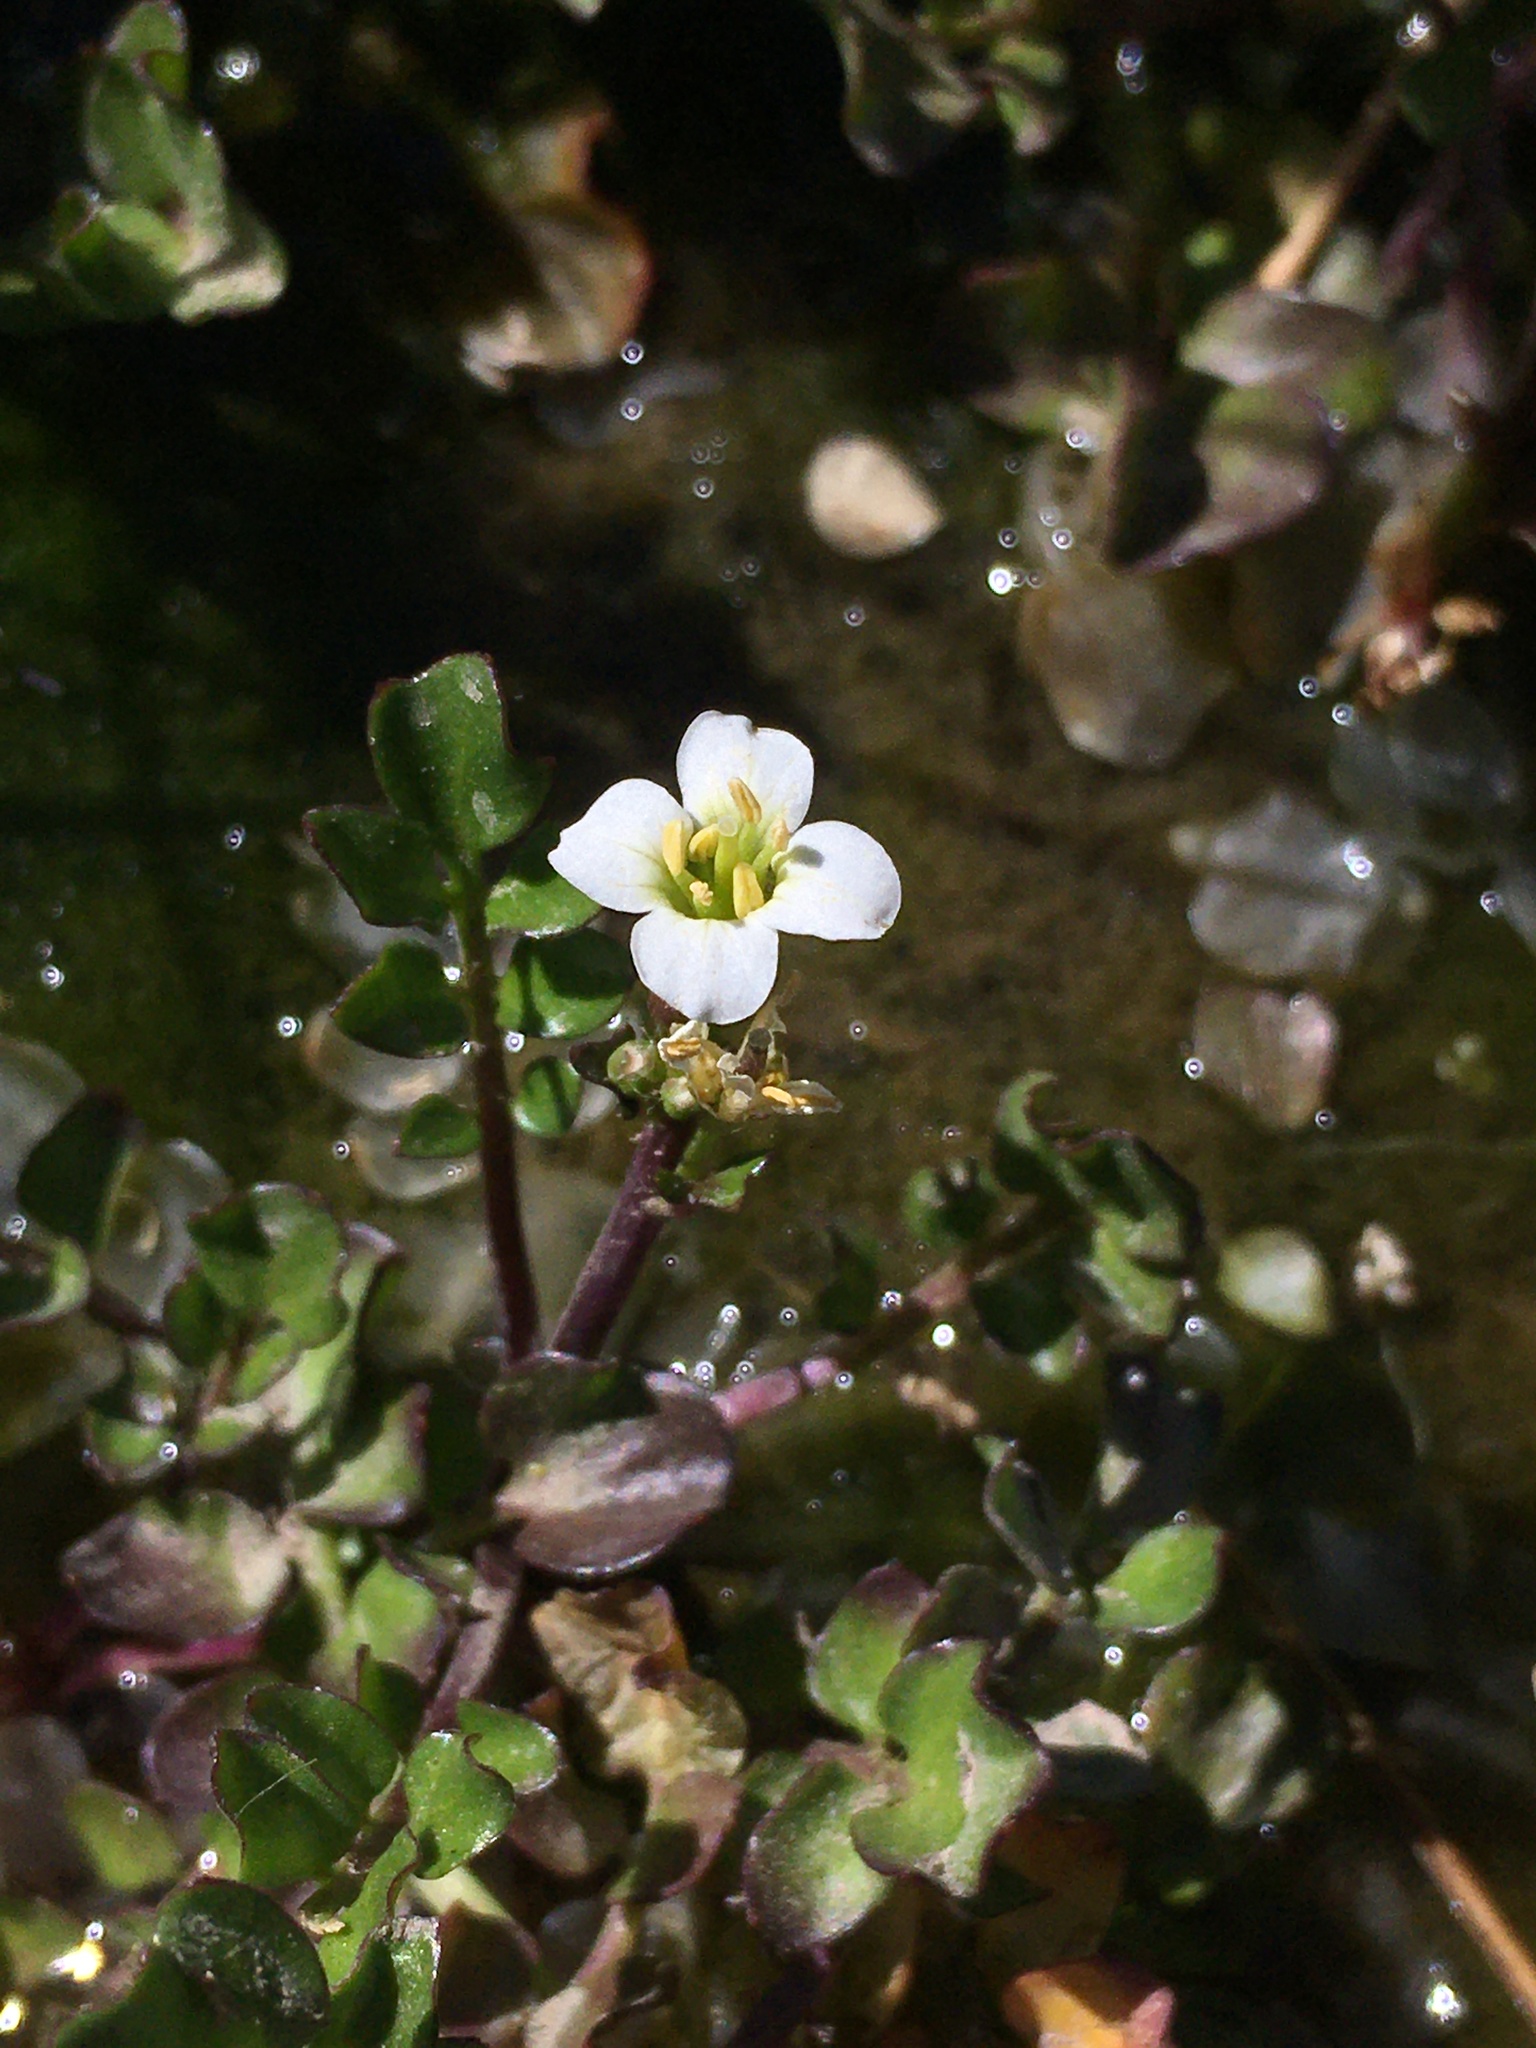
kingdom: Plantae
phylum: Tracheophyta
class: Magnoliopsida
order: Brassicales
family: Brassicaceae
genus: Nasturtium
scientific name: Nasturtium officinale
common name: Watercress
